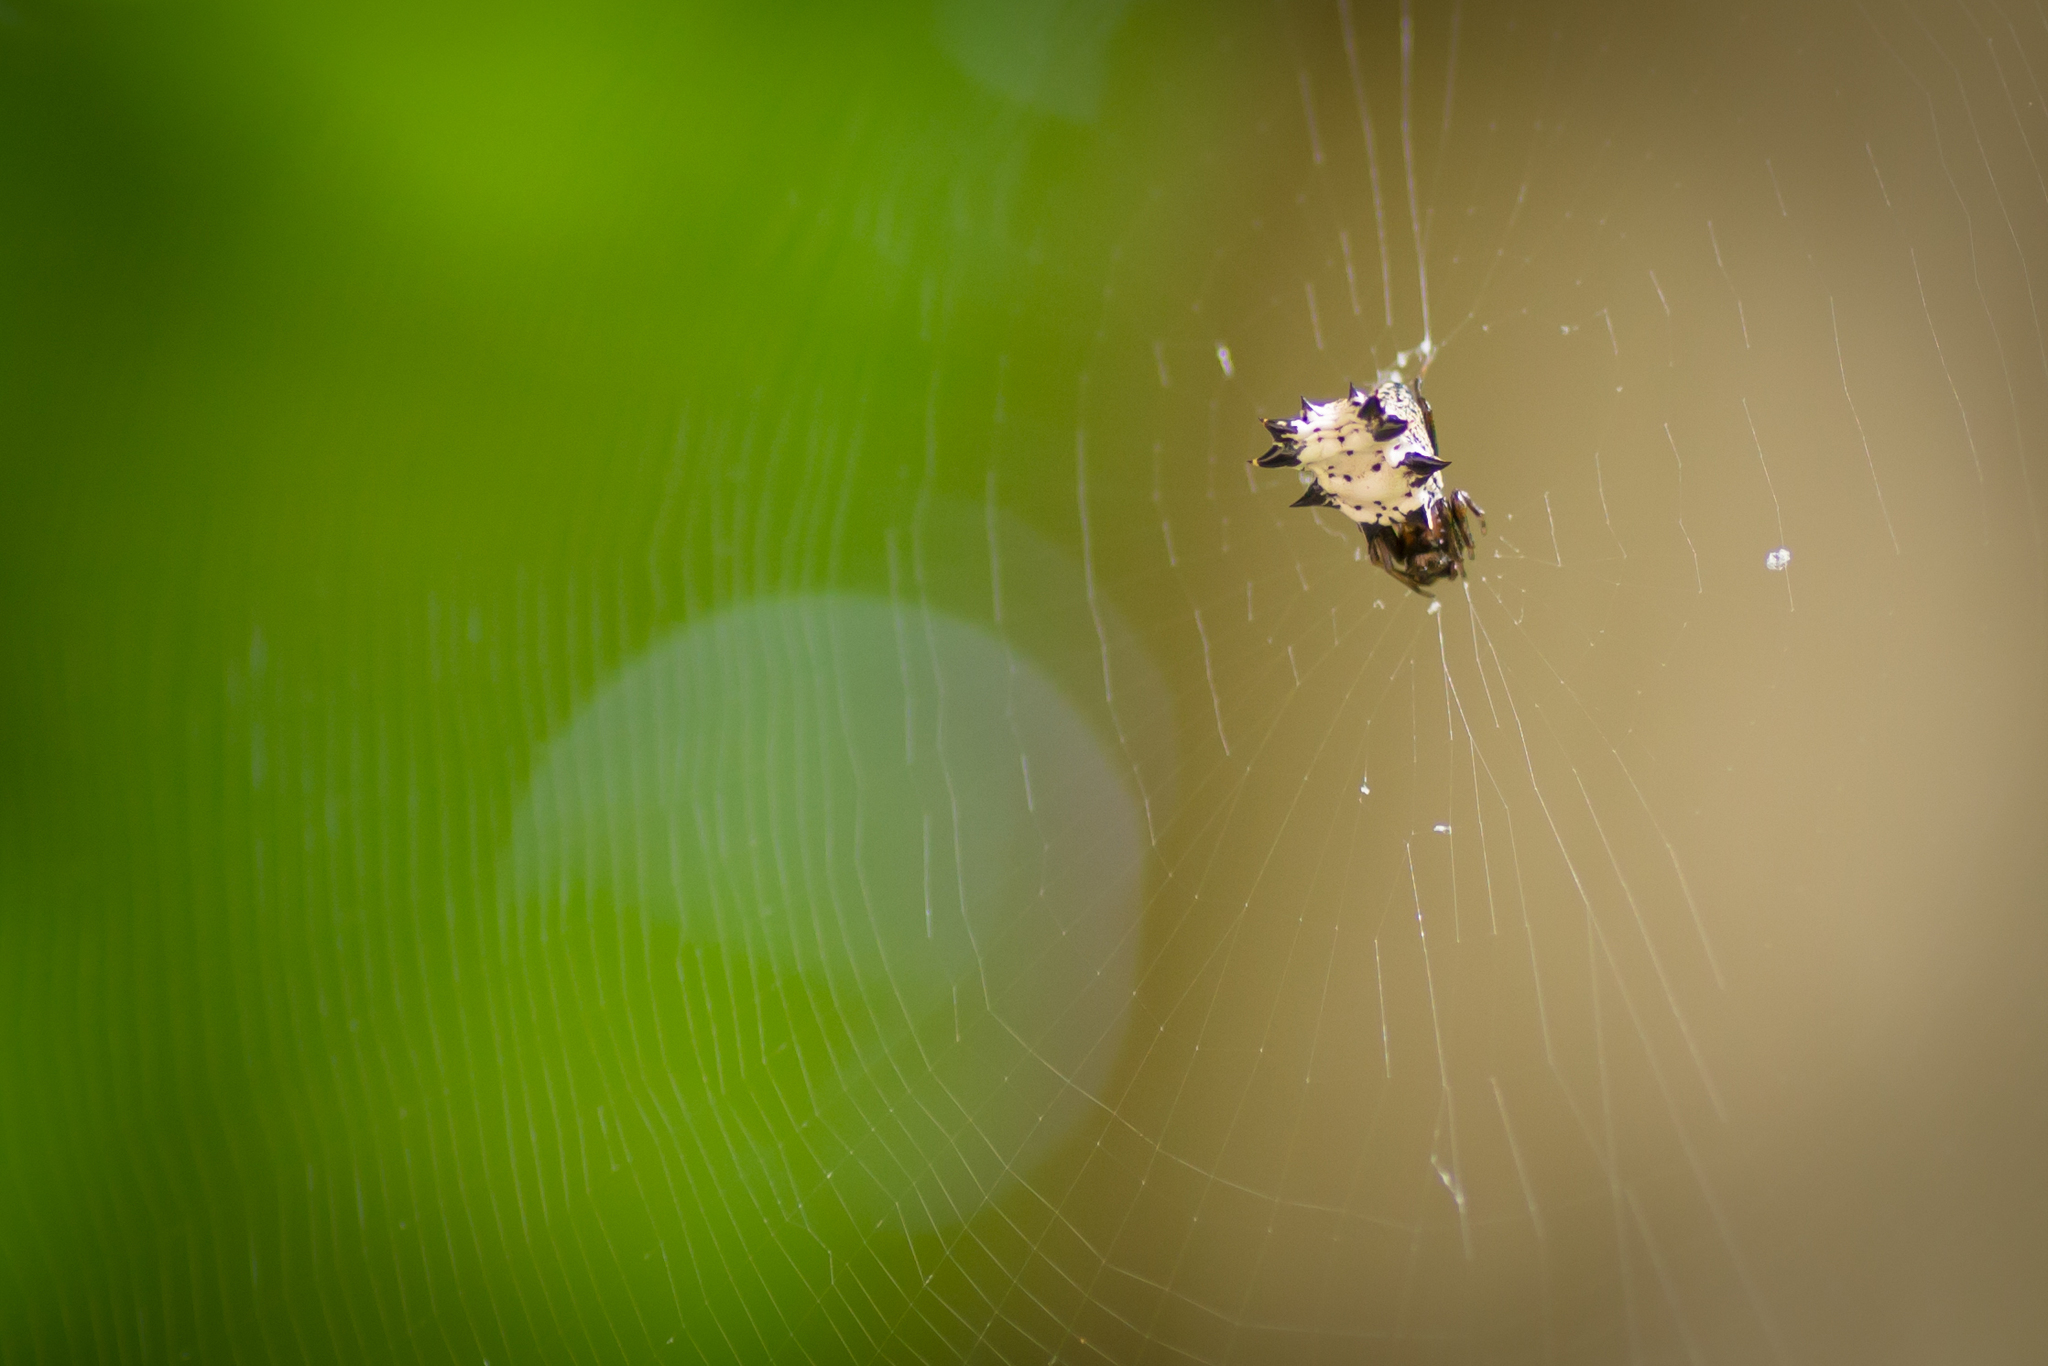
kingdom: Animalia
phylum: Arthropoda
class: Arachnida
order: Araneae
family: Araneidae
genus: Micrathena
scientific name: Micrathena gracilis
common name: Orb weavers
